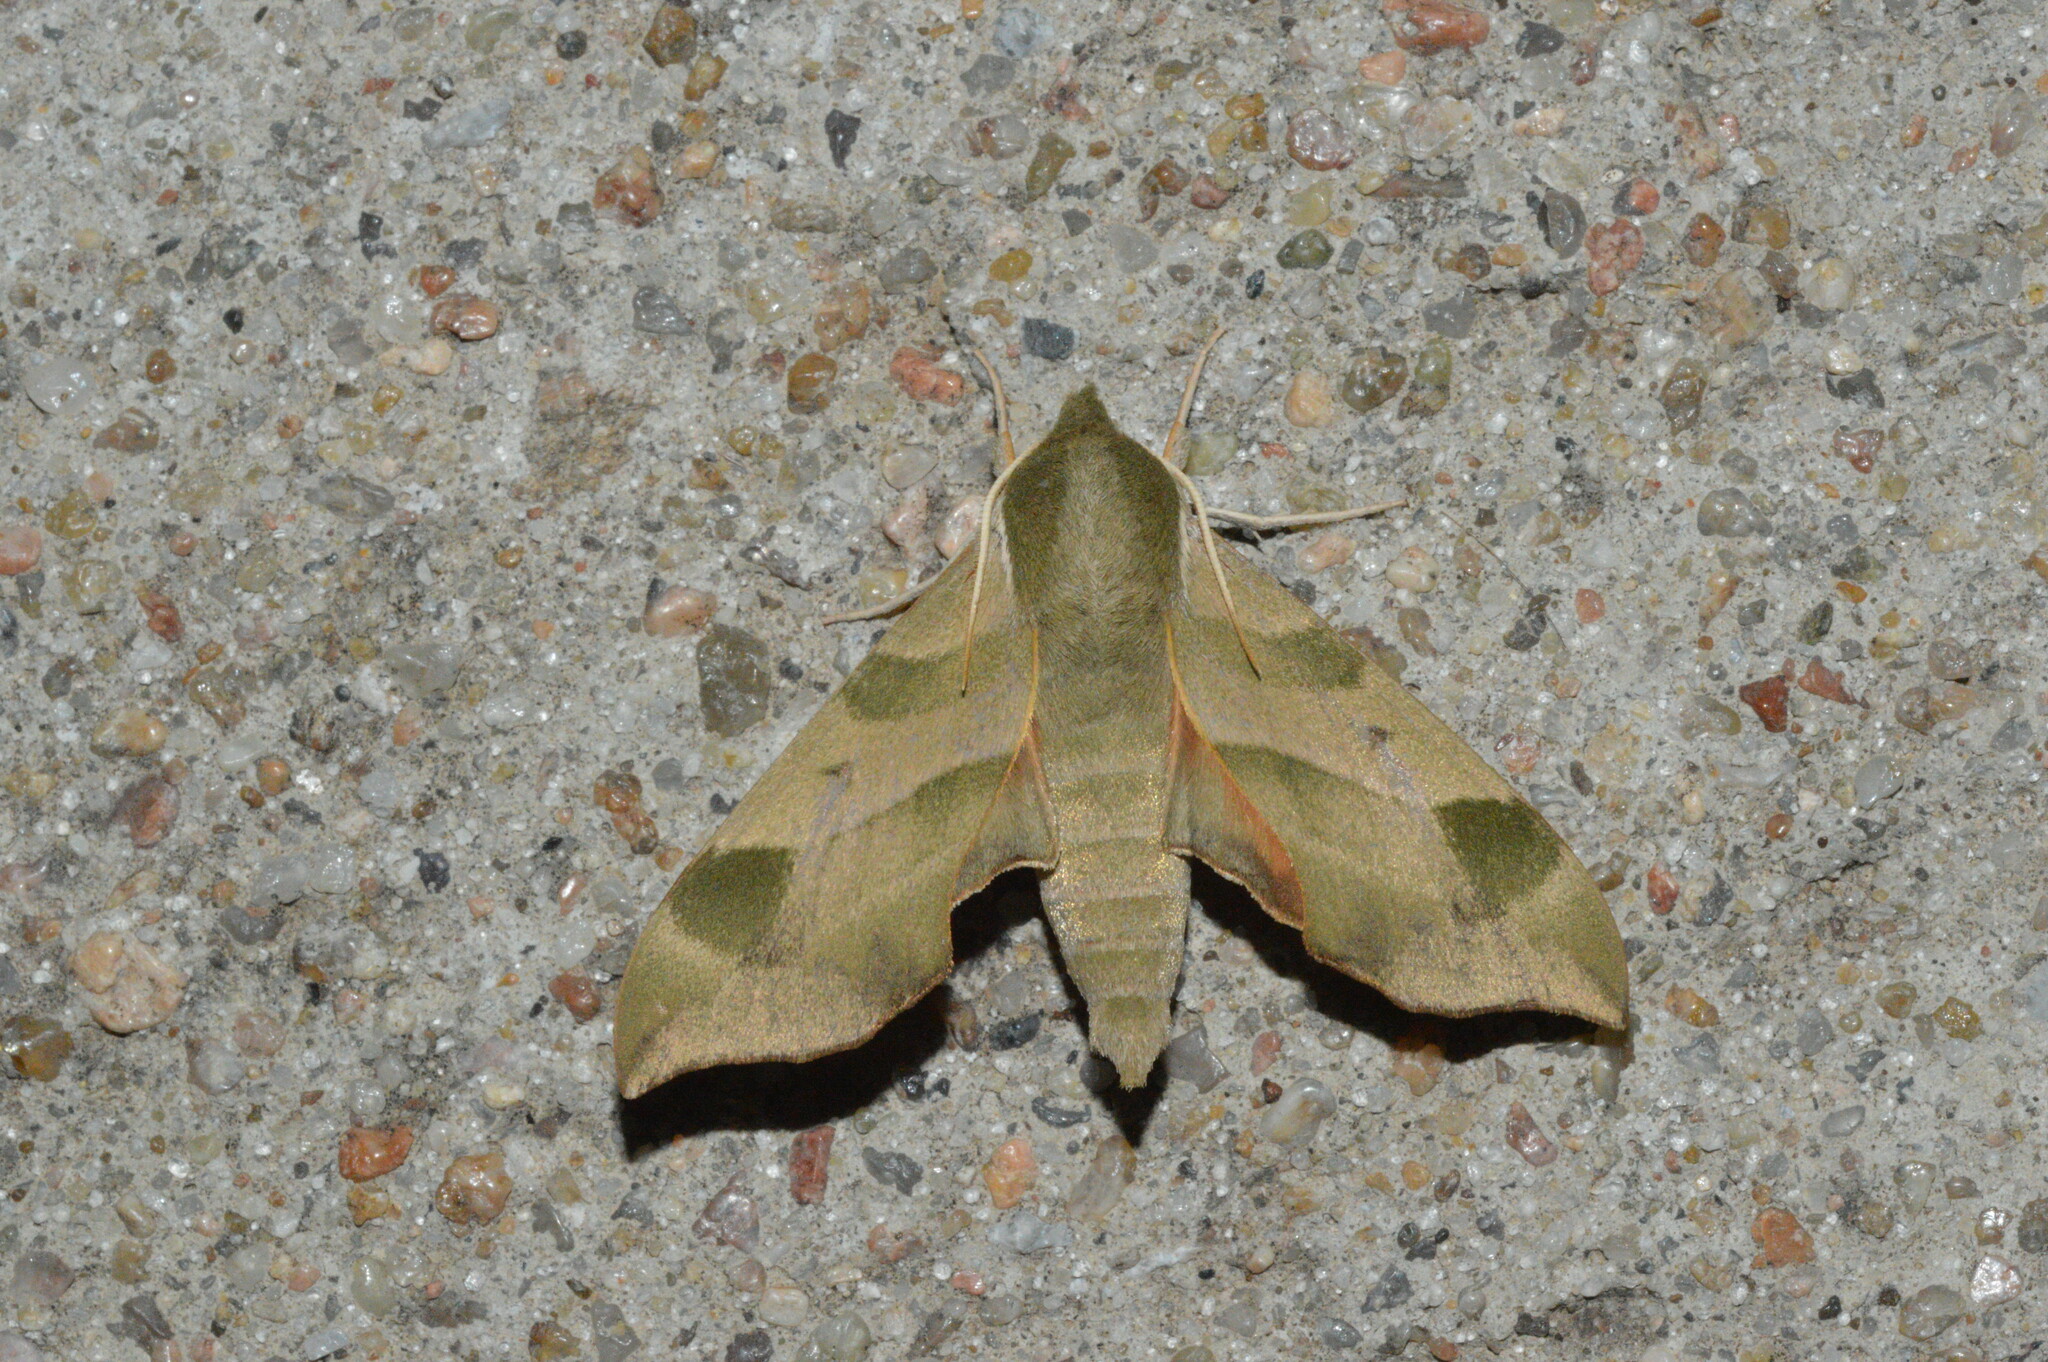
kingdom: Animalia
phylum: Arthropoda
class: Insecta
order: Lepidoptera
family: Sphingidae
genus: Darapsa
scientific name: Darapsa myron
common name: Hog sphinx
